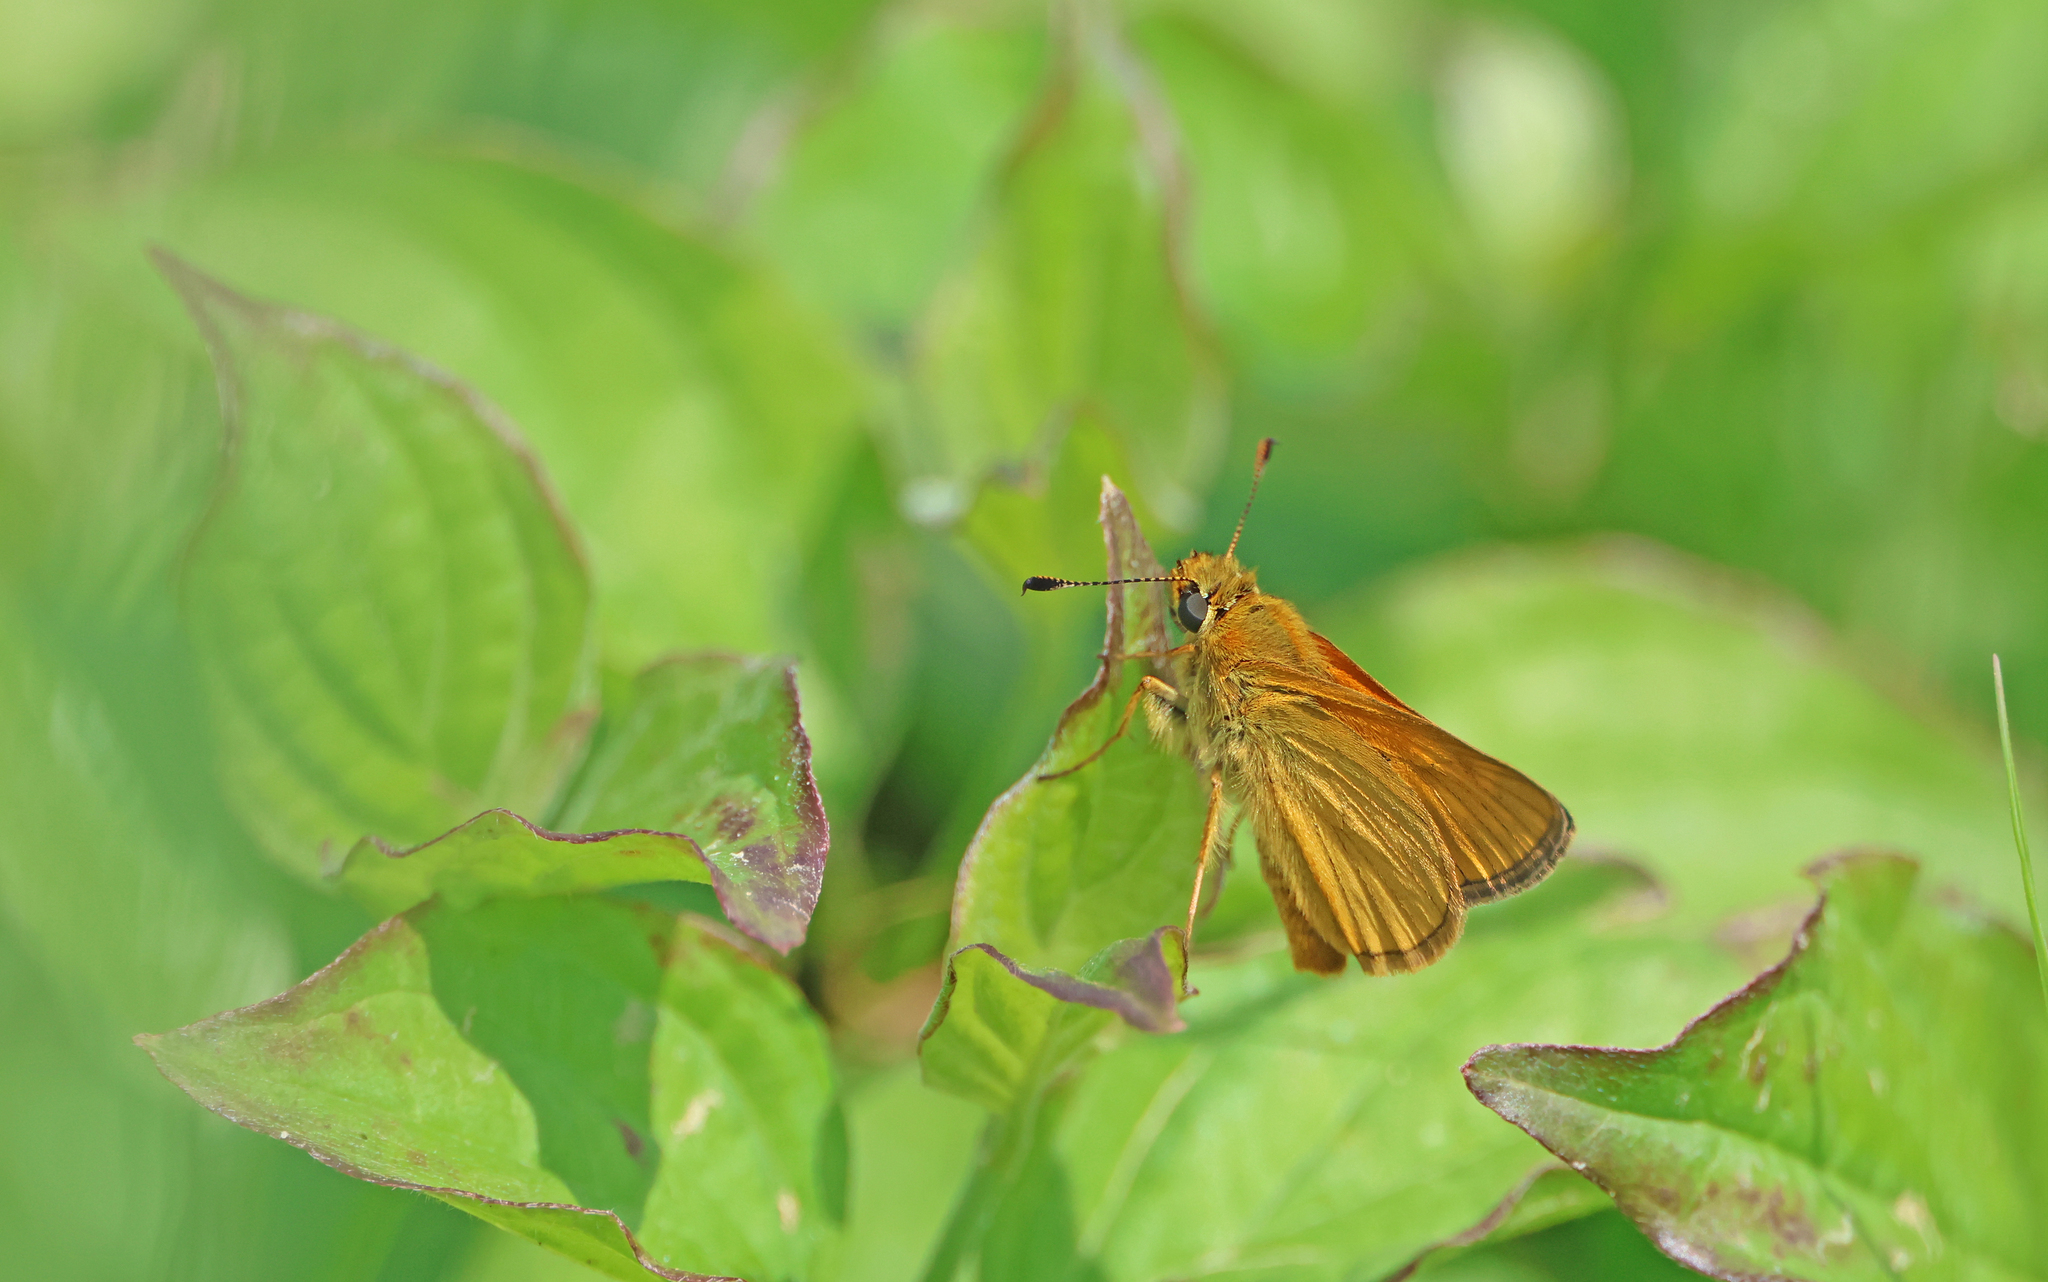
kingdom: Animalia
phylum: Arthropoda
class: Insecta
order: Lepidoptera
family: Hesperiidae
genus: Ochlodes
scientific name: Ochlodes venata
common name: Large skipper
